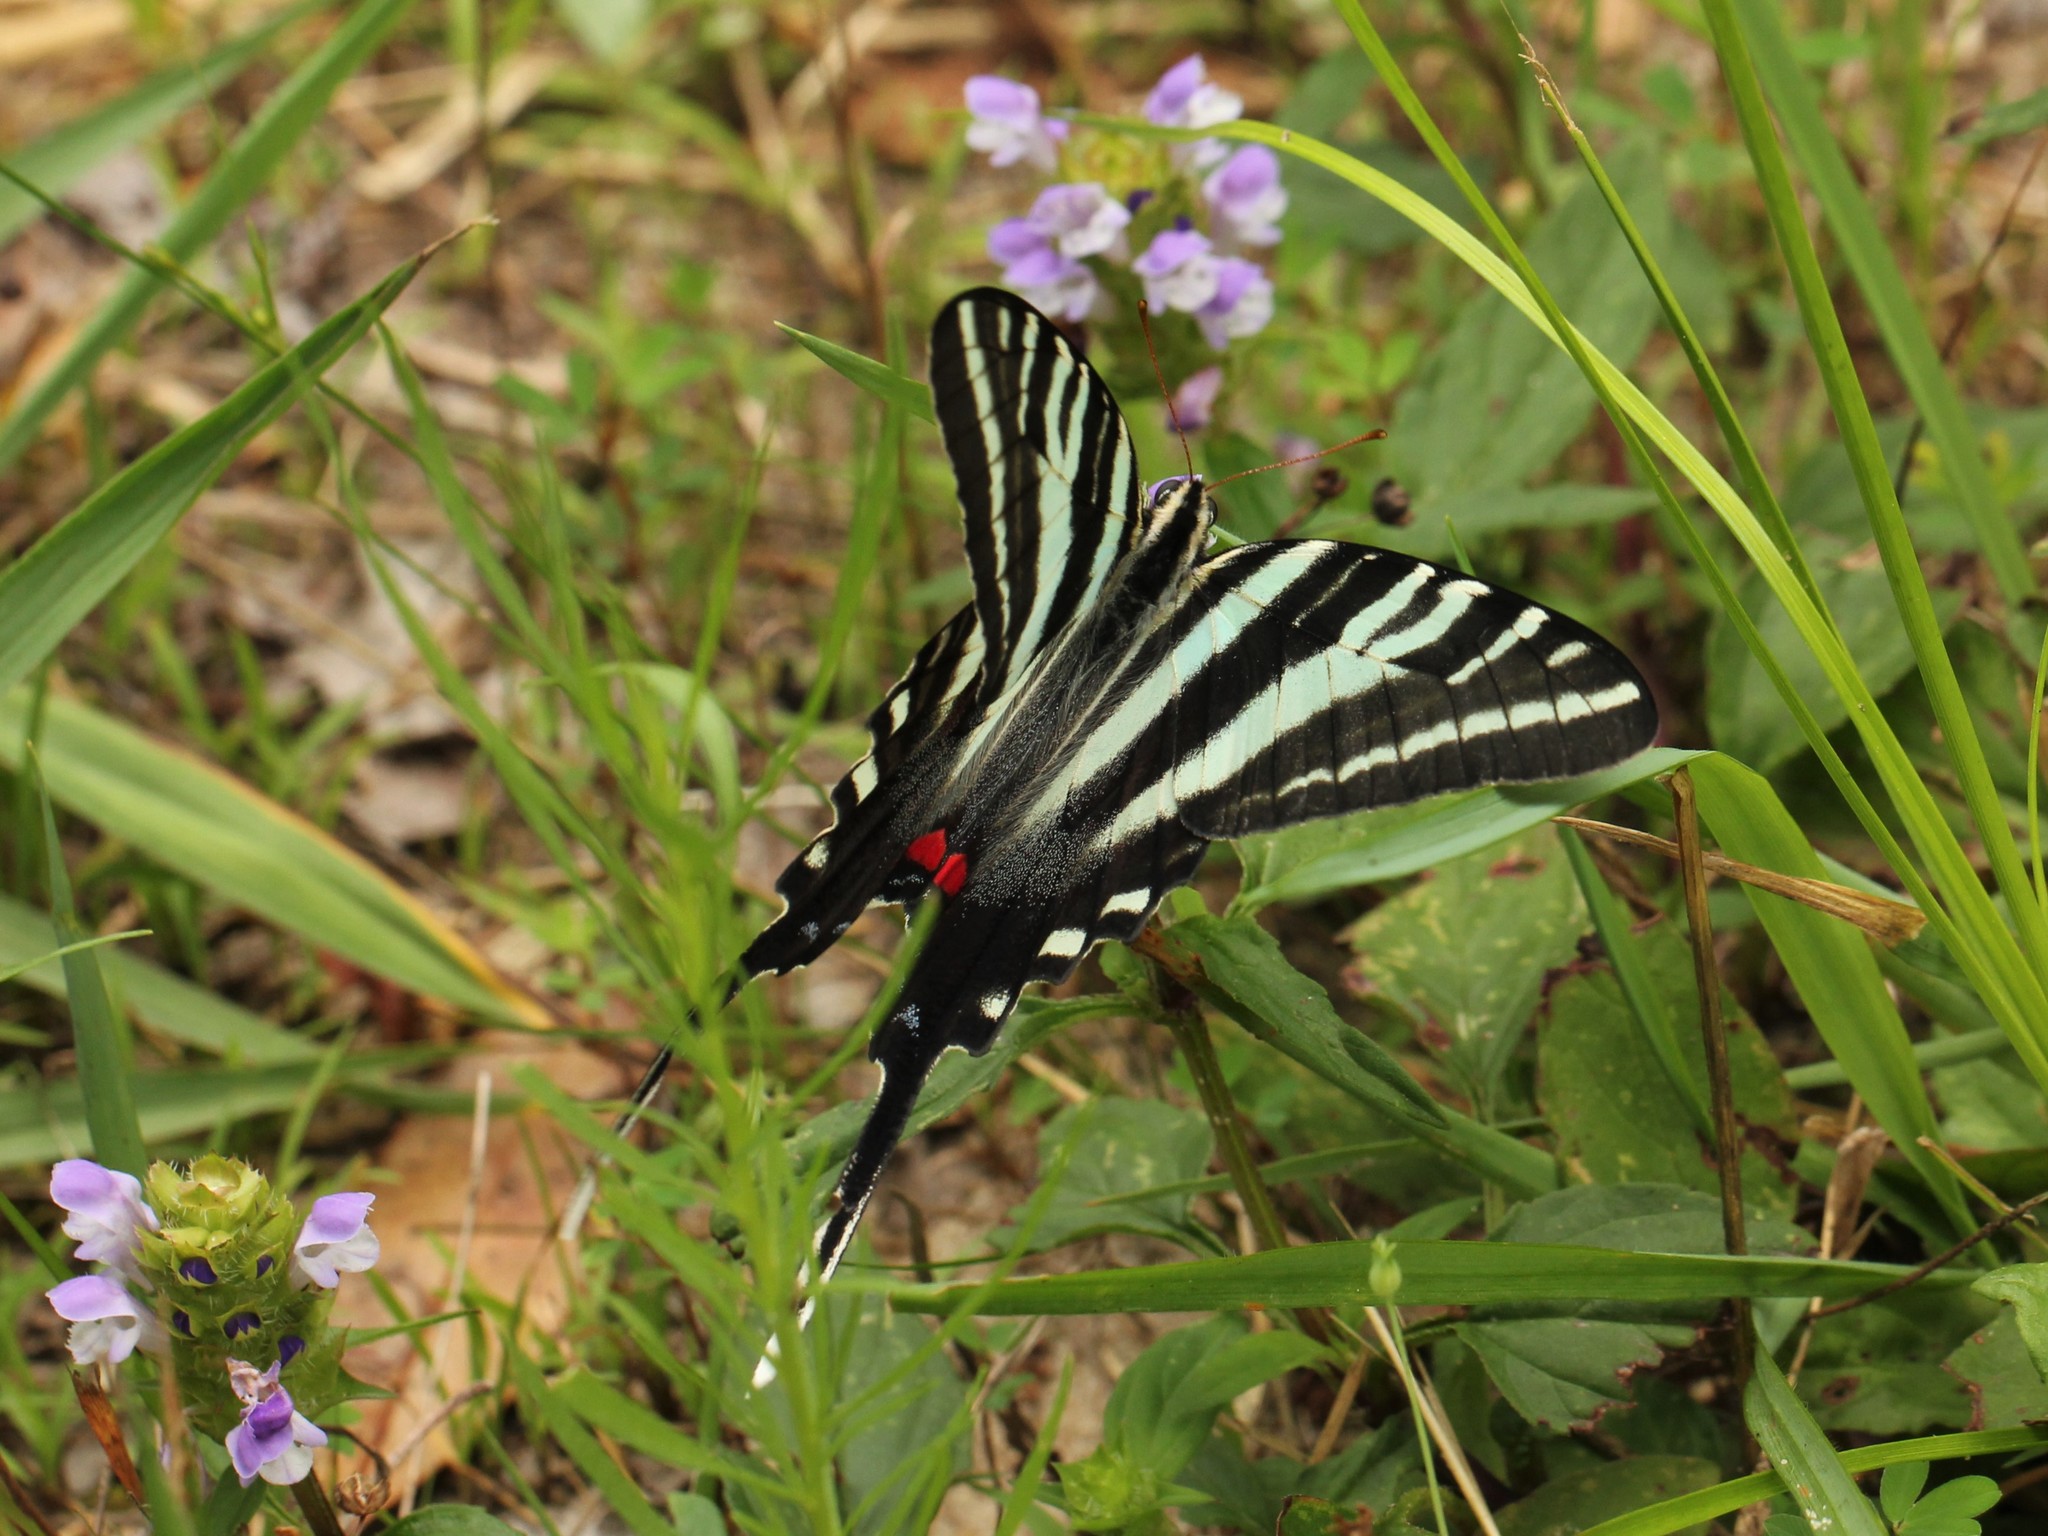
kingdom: Animalia
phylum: Arthropoda
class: Insecta
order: Lepidoptera
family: Papilionidae
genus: Protographium
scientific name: Protographium marcellus
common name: Zebra swallowtail
